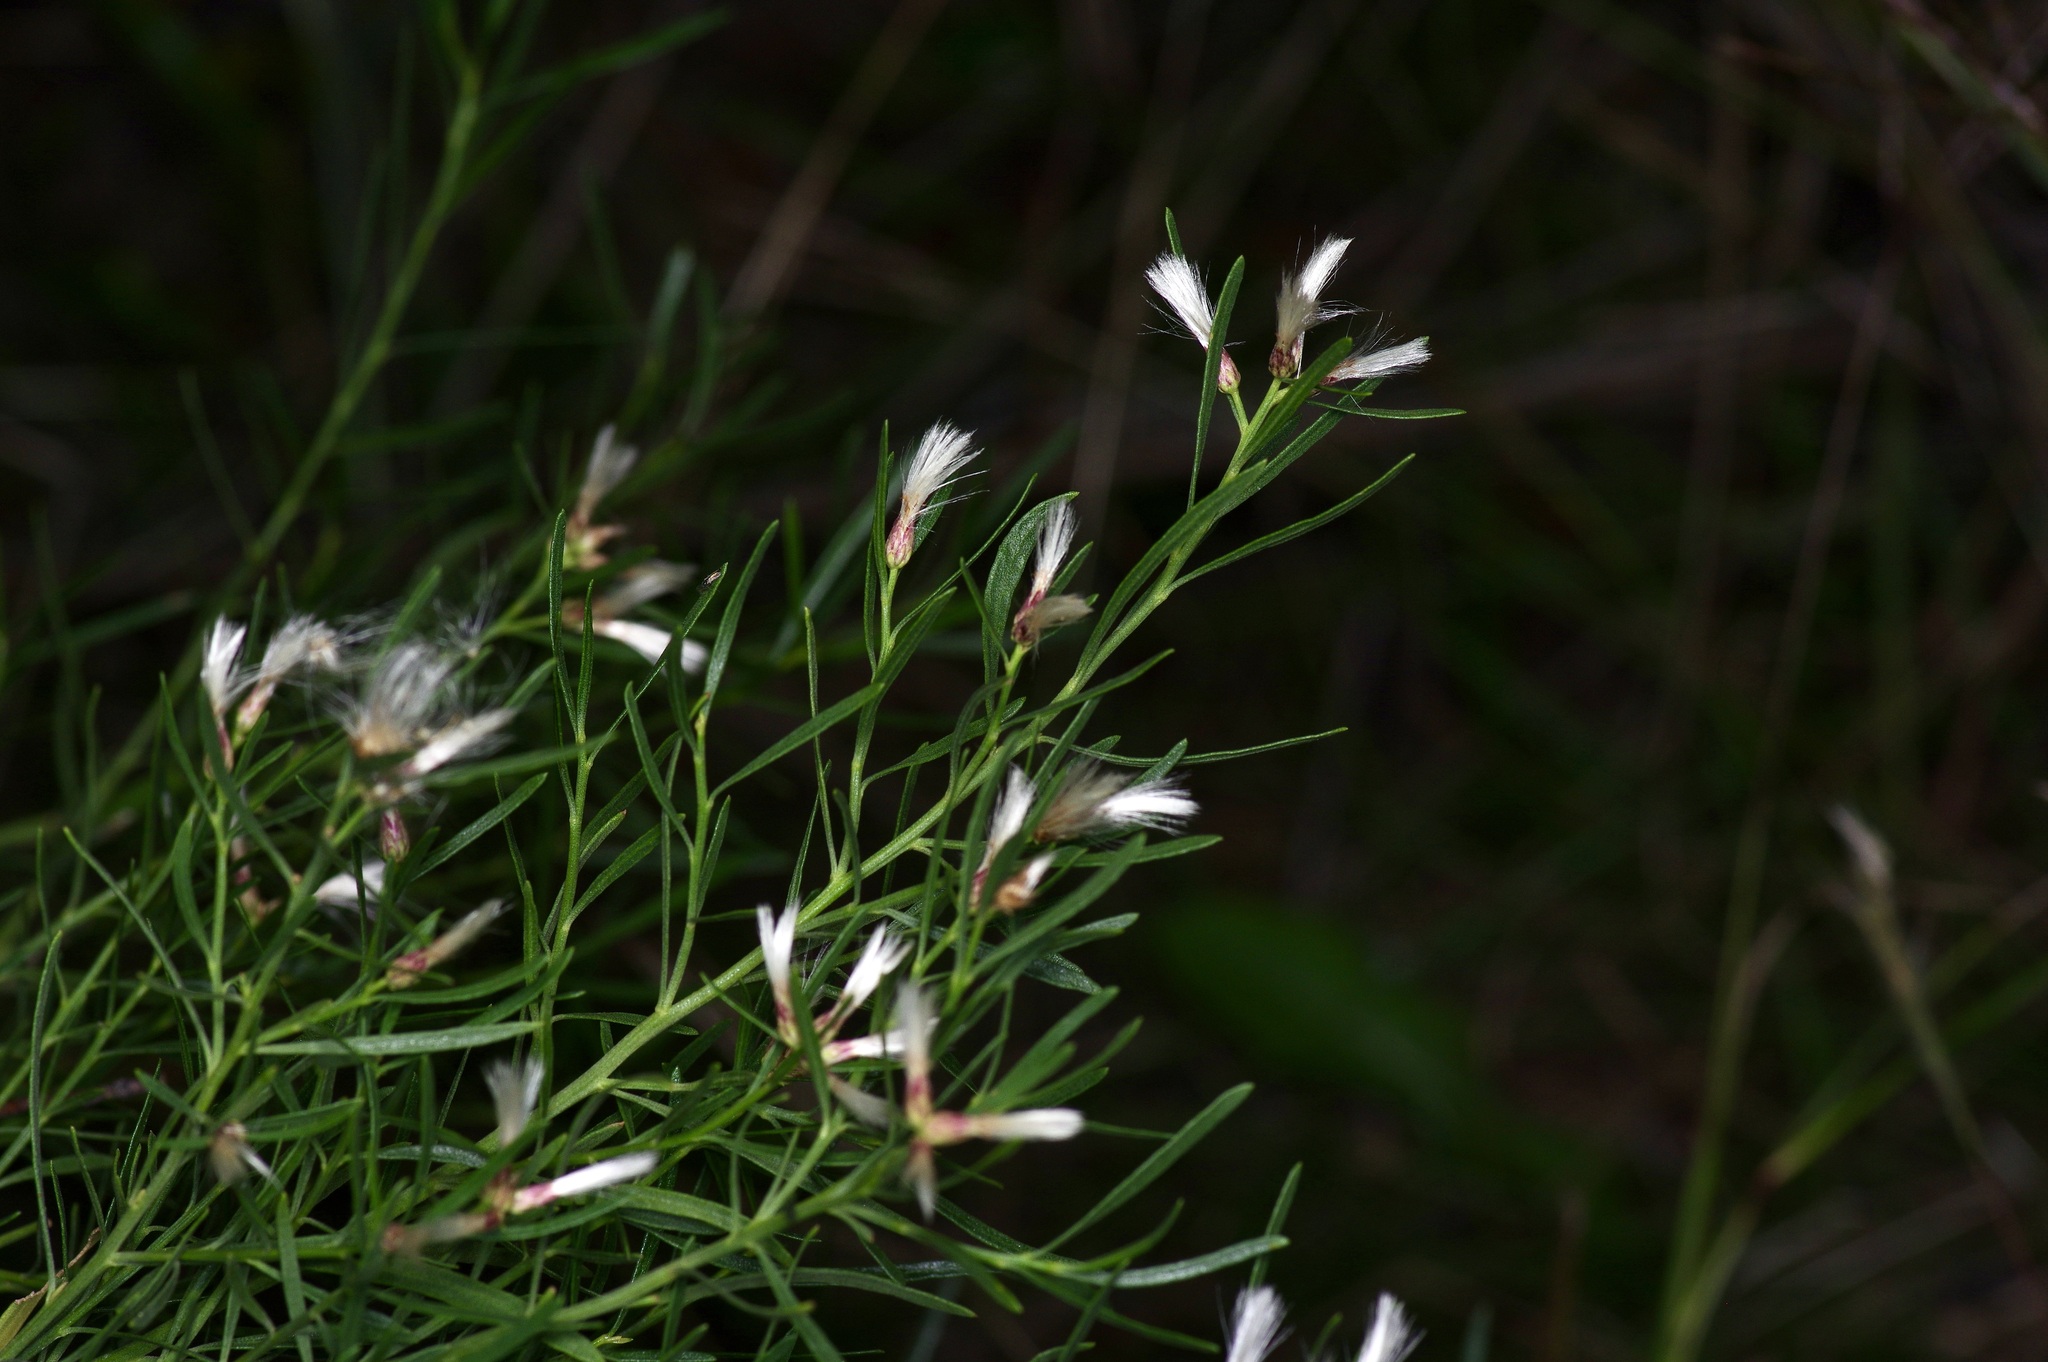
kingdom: Plantae
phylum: Tracheophyta
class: Magnoliopsida
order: Asterales
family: Asteraceae
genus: Baccharis
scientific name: Baccharis neglecta
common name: Roosevelt-weed
